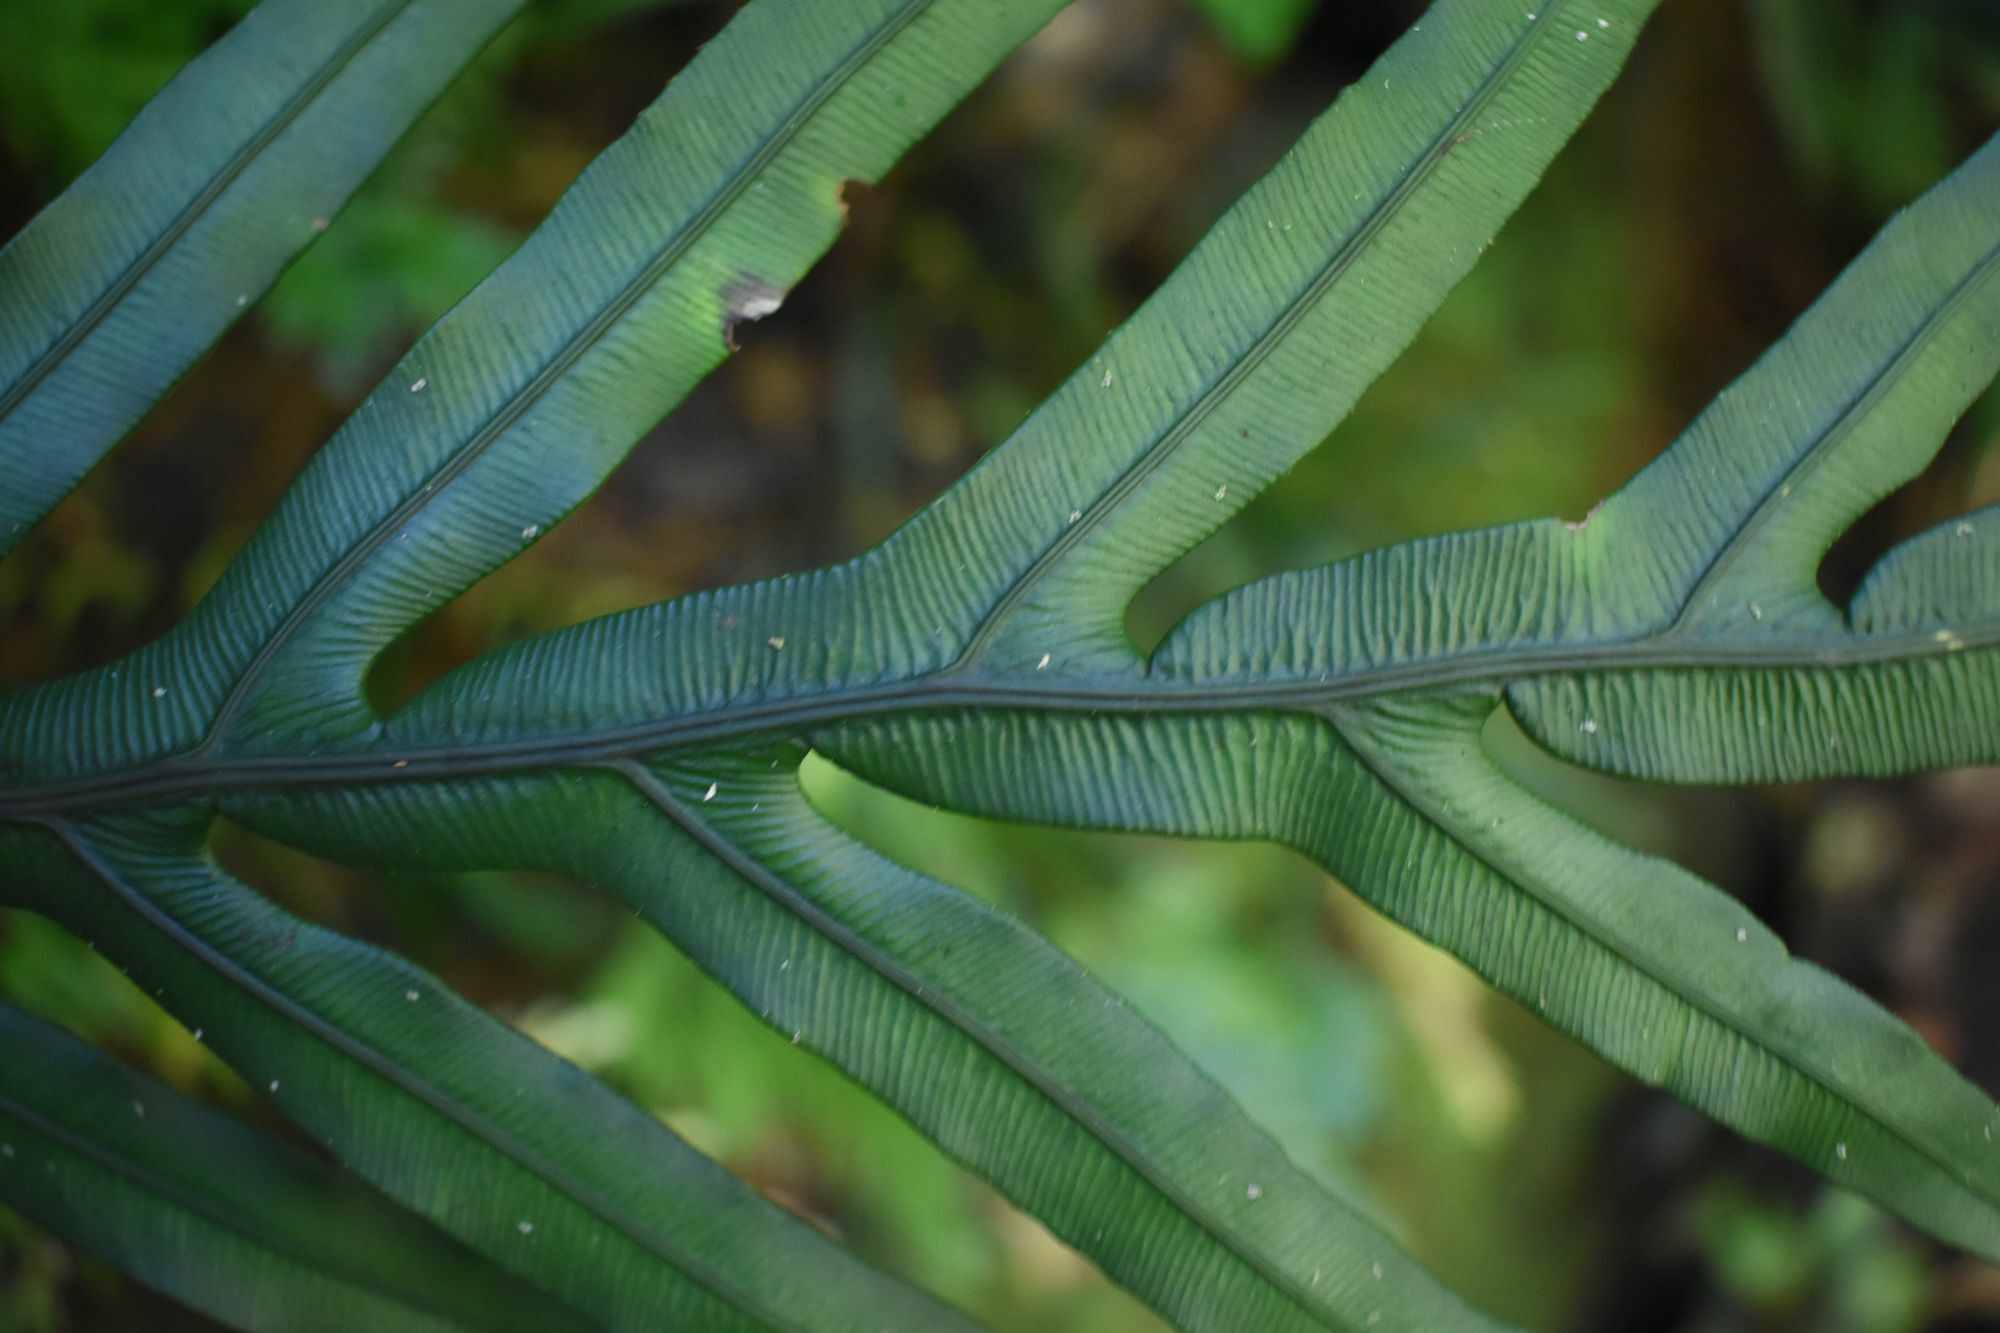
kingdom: Plantae
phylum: Tracheophyta
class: Polypodiopsida
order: Polypodiales
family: Blechnaceae
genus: Austroblechnum
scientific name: Austroblechnum patersonii
